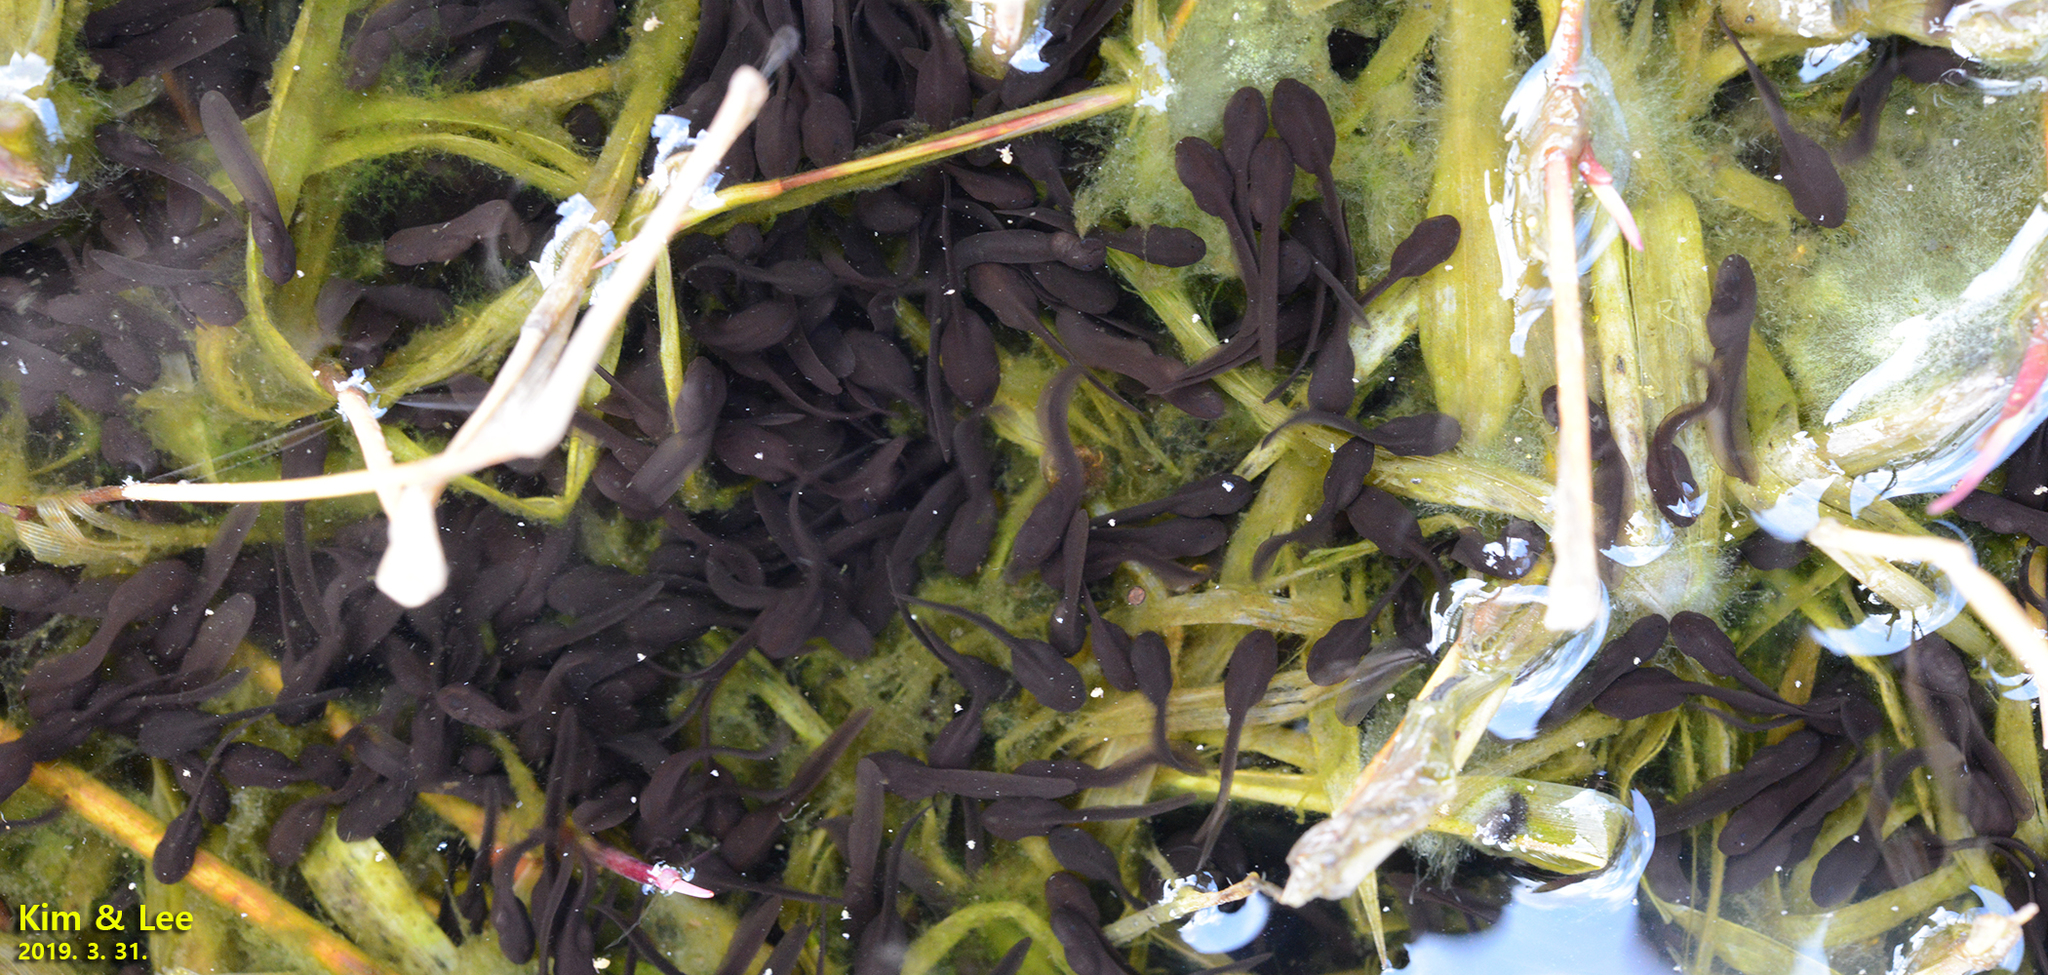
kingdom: Animalia
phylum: Chordata
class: Amphibia
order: Anura
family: Bufonidae
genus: Bufo
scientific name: Bufo gargarizans
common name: Asiatic toad
